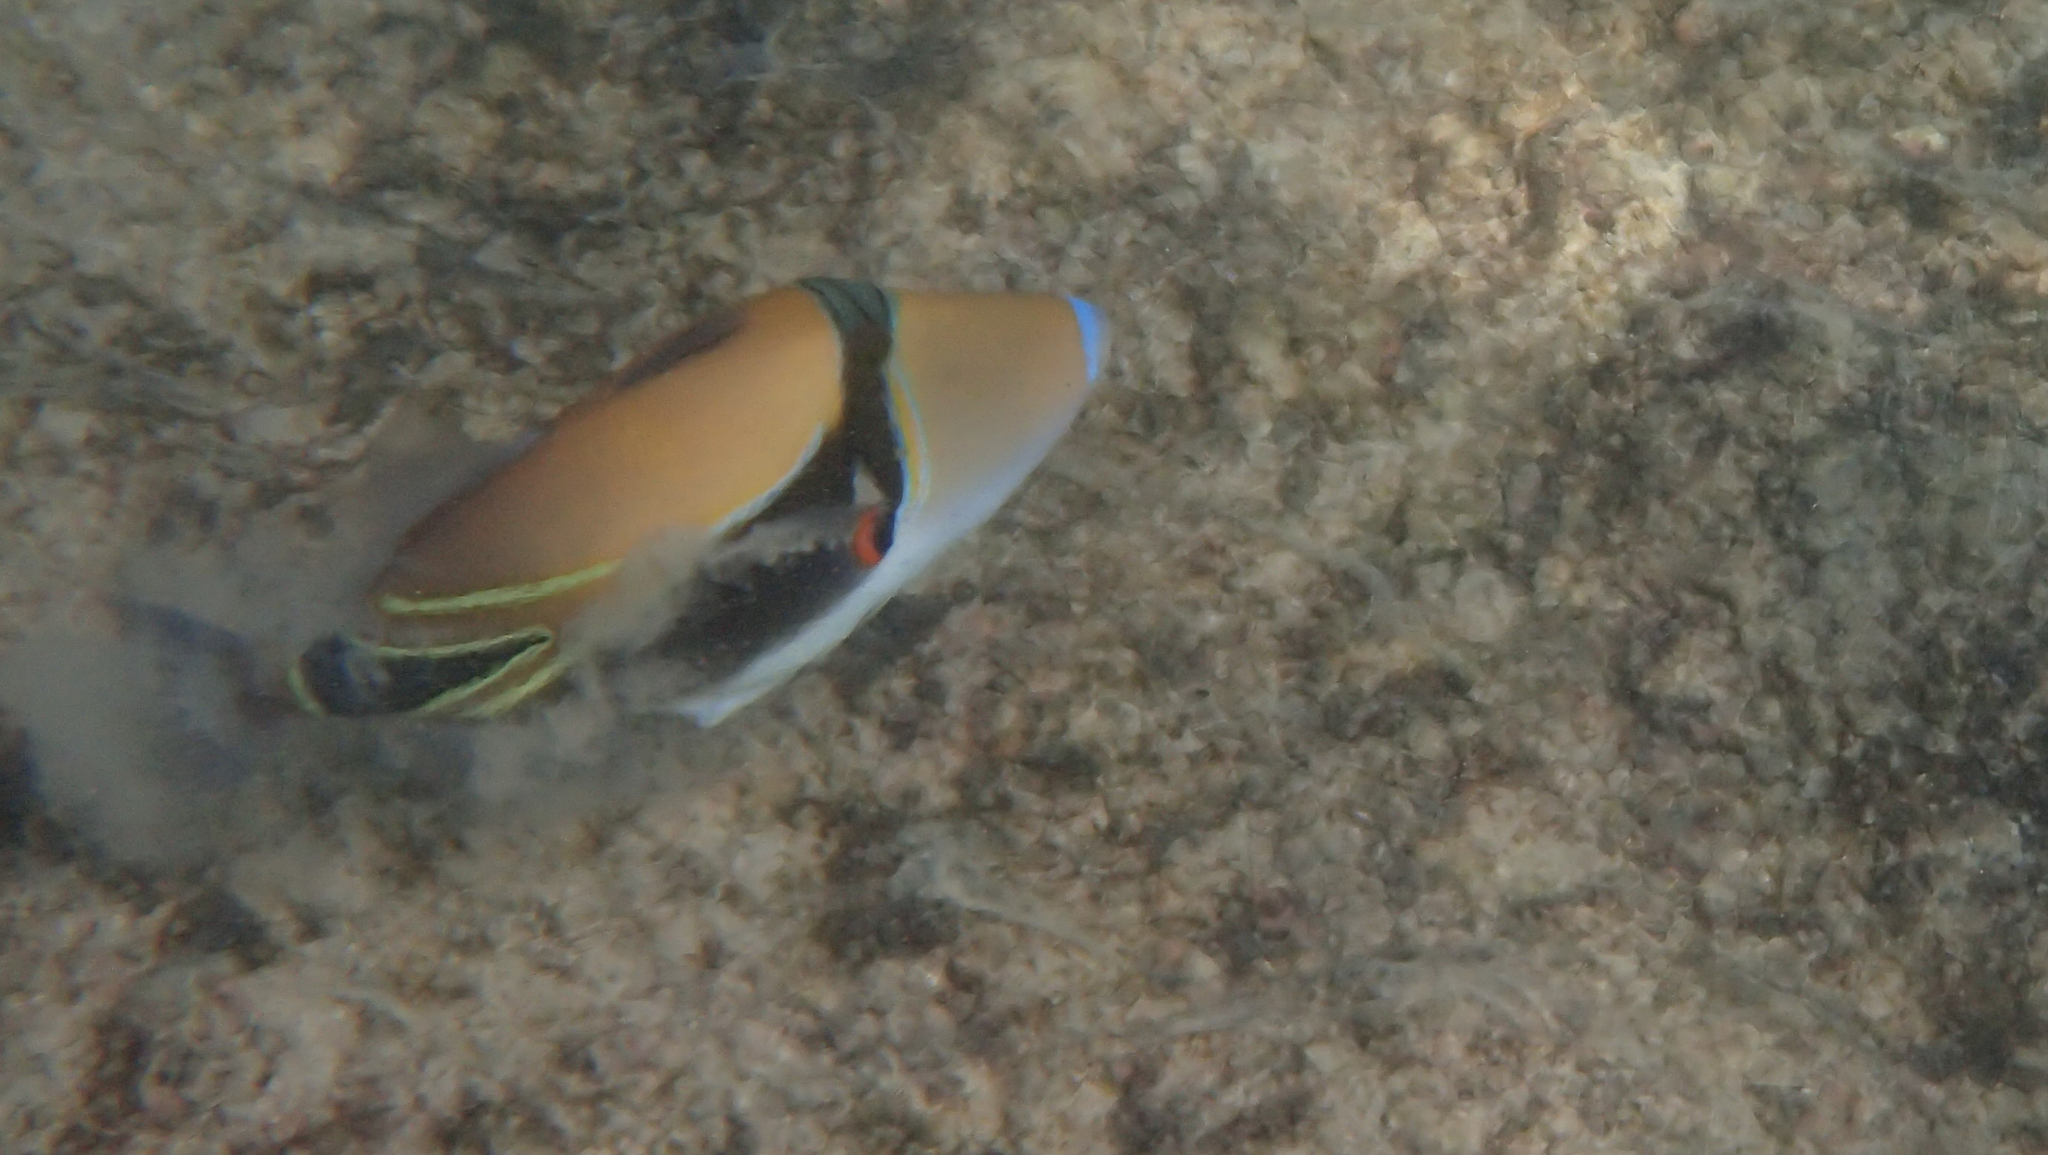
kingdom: Animalia
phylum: Chordata
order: Tetraodontiformes
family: Balistidae
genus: Rhinecanthus
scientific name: Rhinecanthus rectangulus
